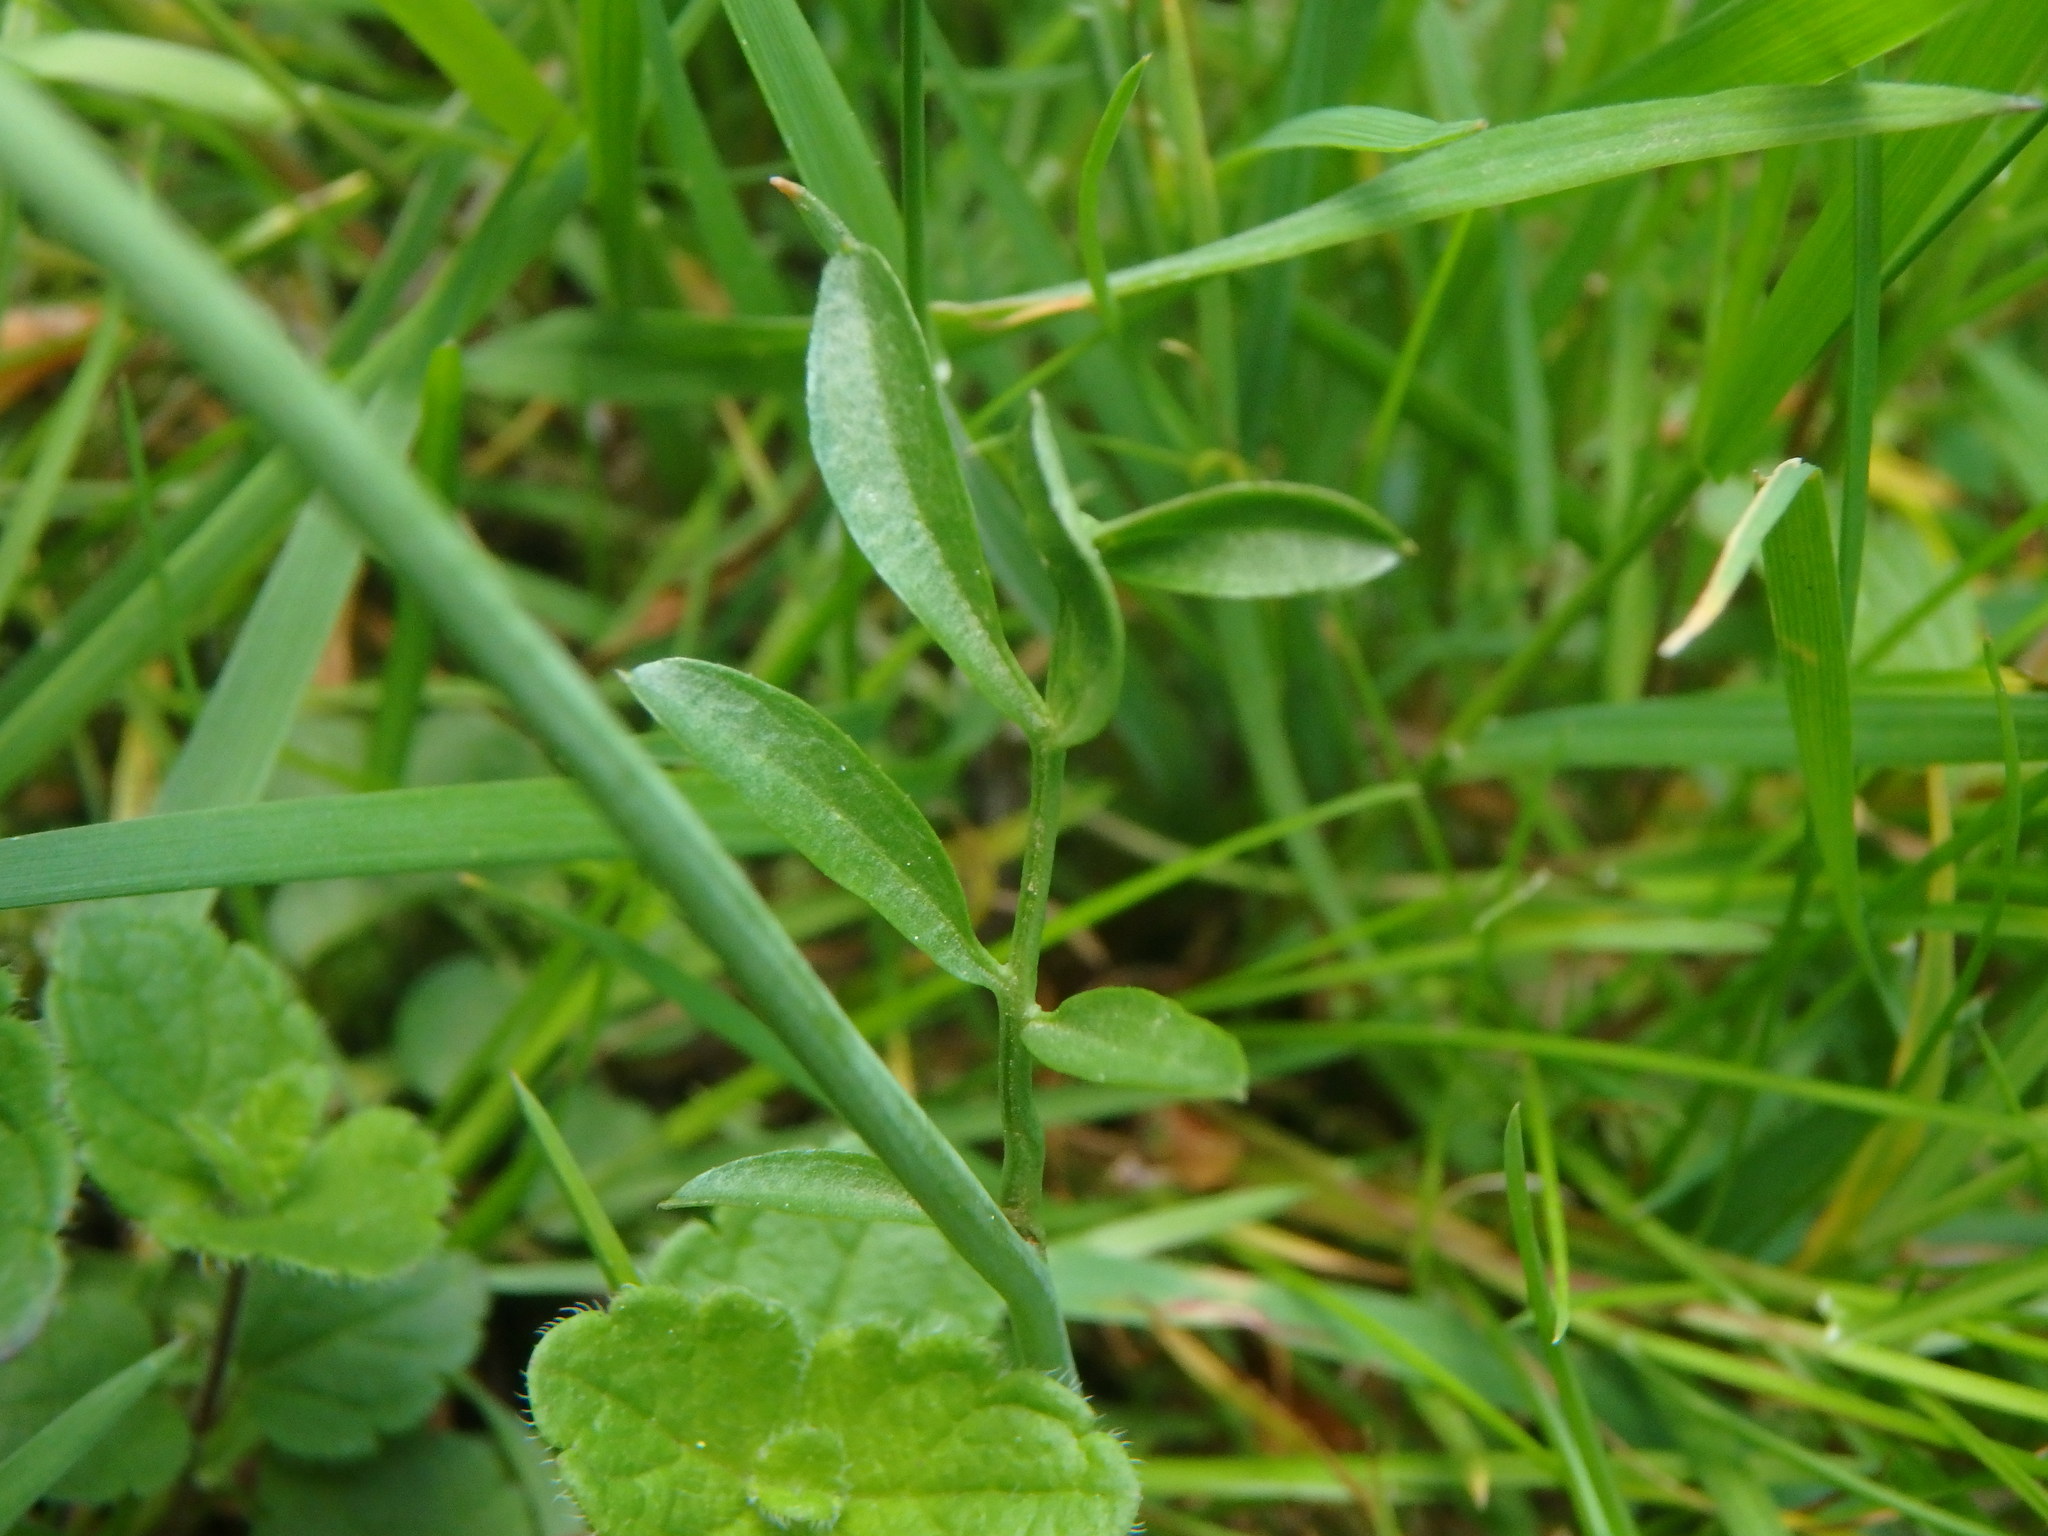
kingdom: Plantae
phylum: Tracheophyta
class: Magnoliopsida
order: Brassicales
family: Brassicaceae
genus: Cardamine
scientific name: Cardamine pratensis
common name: Cuckoo flower
